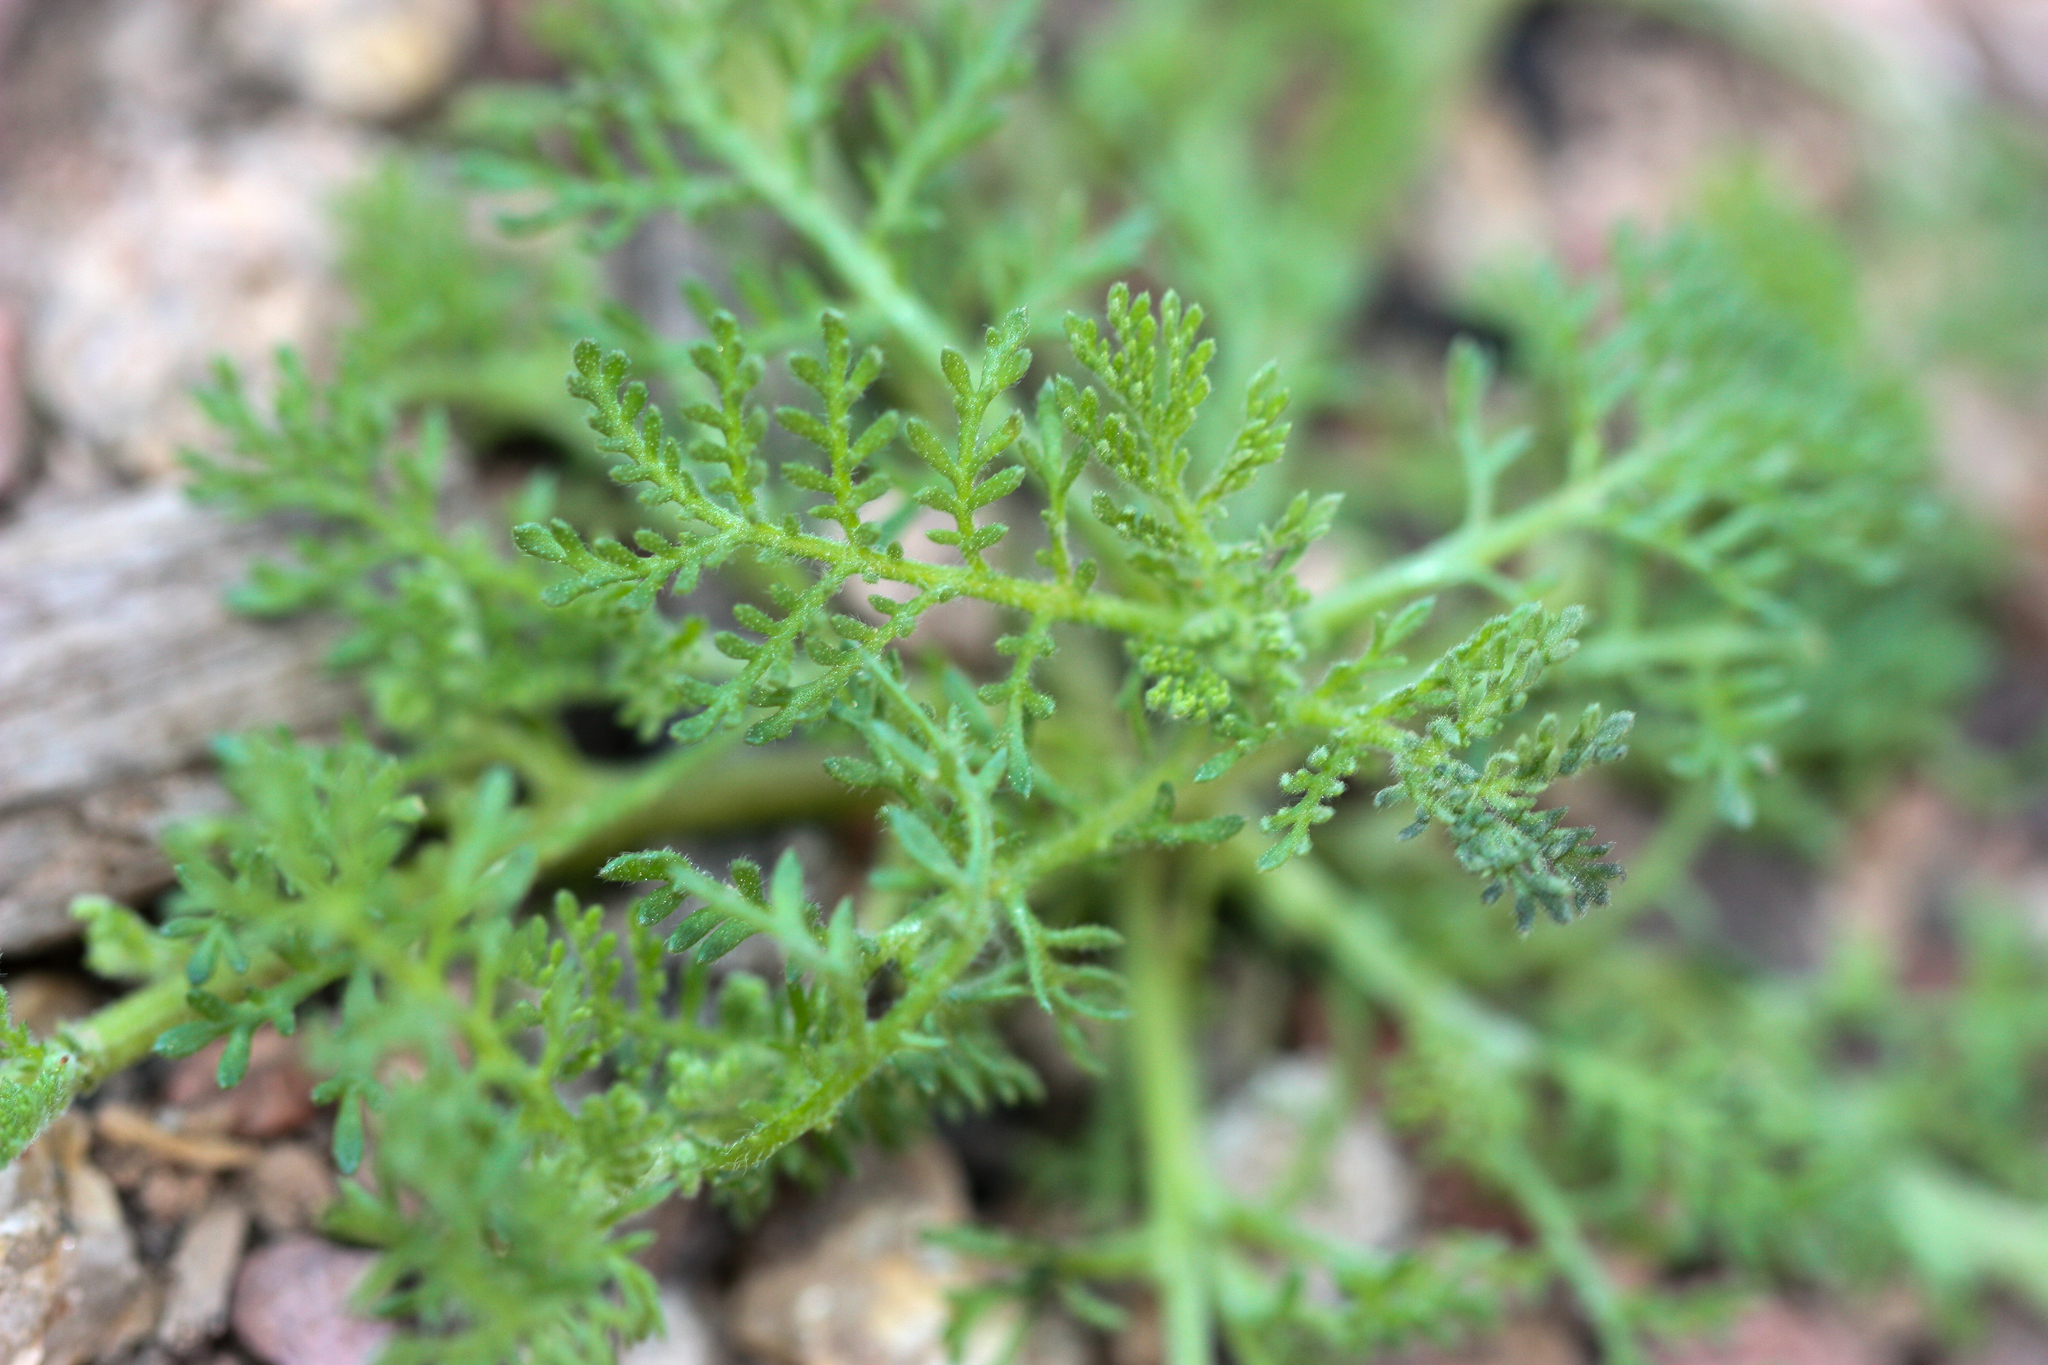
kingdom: Plantae
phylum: Tracheophyta
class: Magnoliopsida
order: Asterales
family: Asteraceae
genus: Oncosiphon
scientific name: Oncosiphon pilulifer
